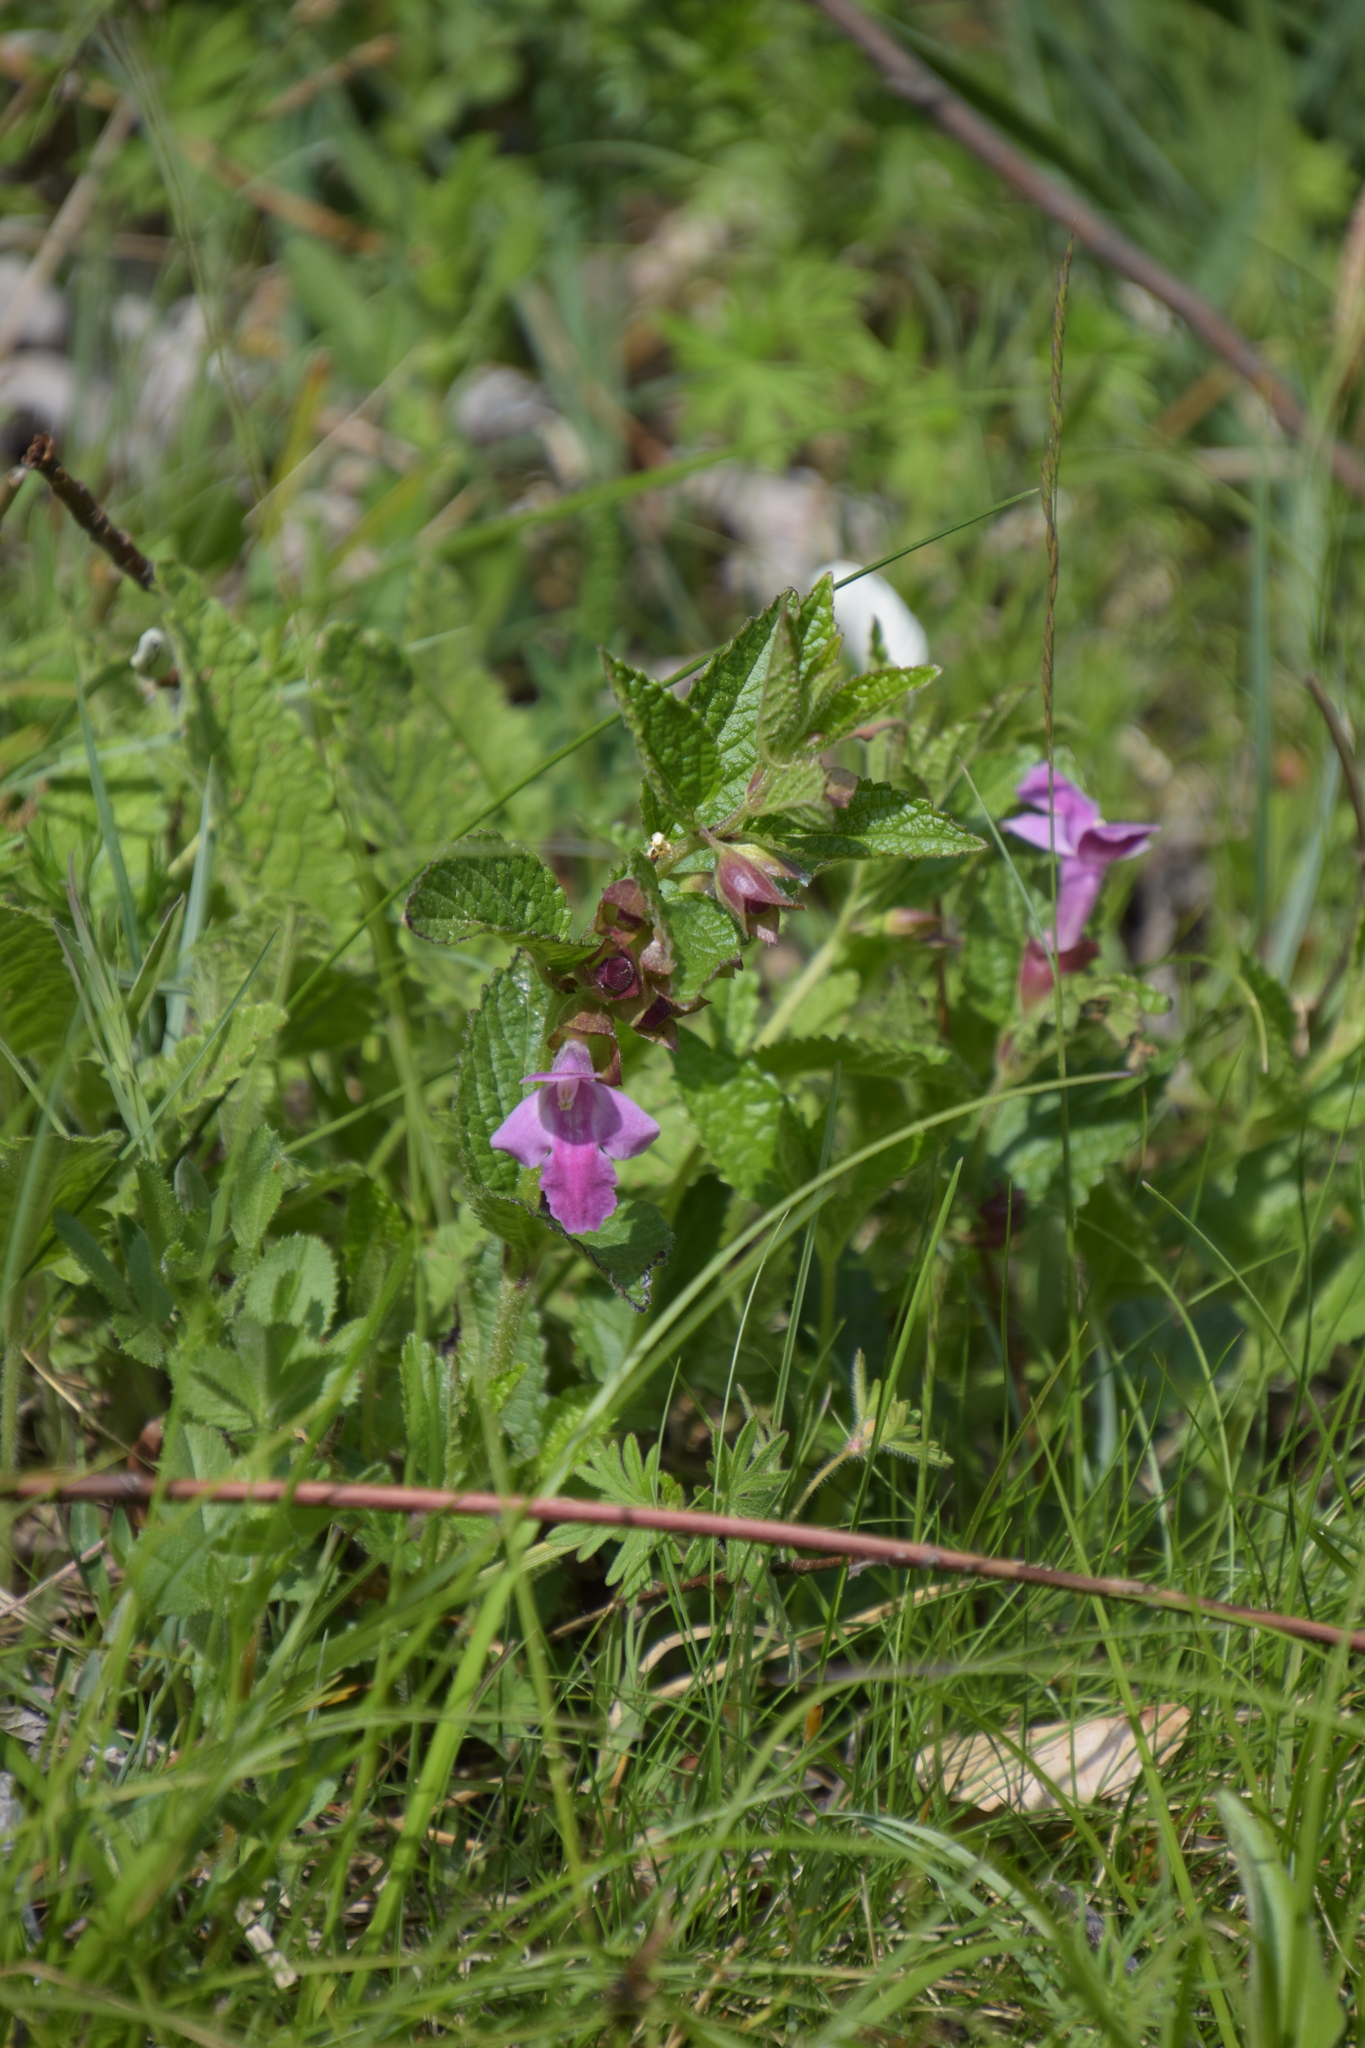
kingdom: Plantae
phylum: Tracheophyta
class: Magnoliopsida
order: Lamiales
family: Lamiaceae
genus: Melittis
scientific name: Melittis melissophyllum
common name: Bastard balm
